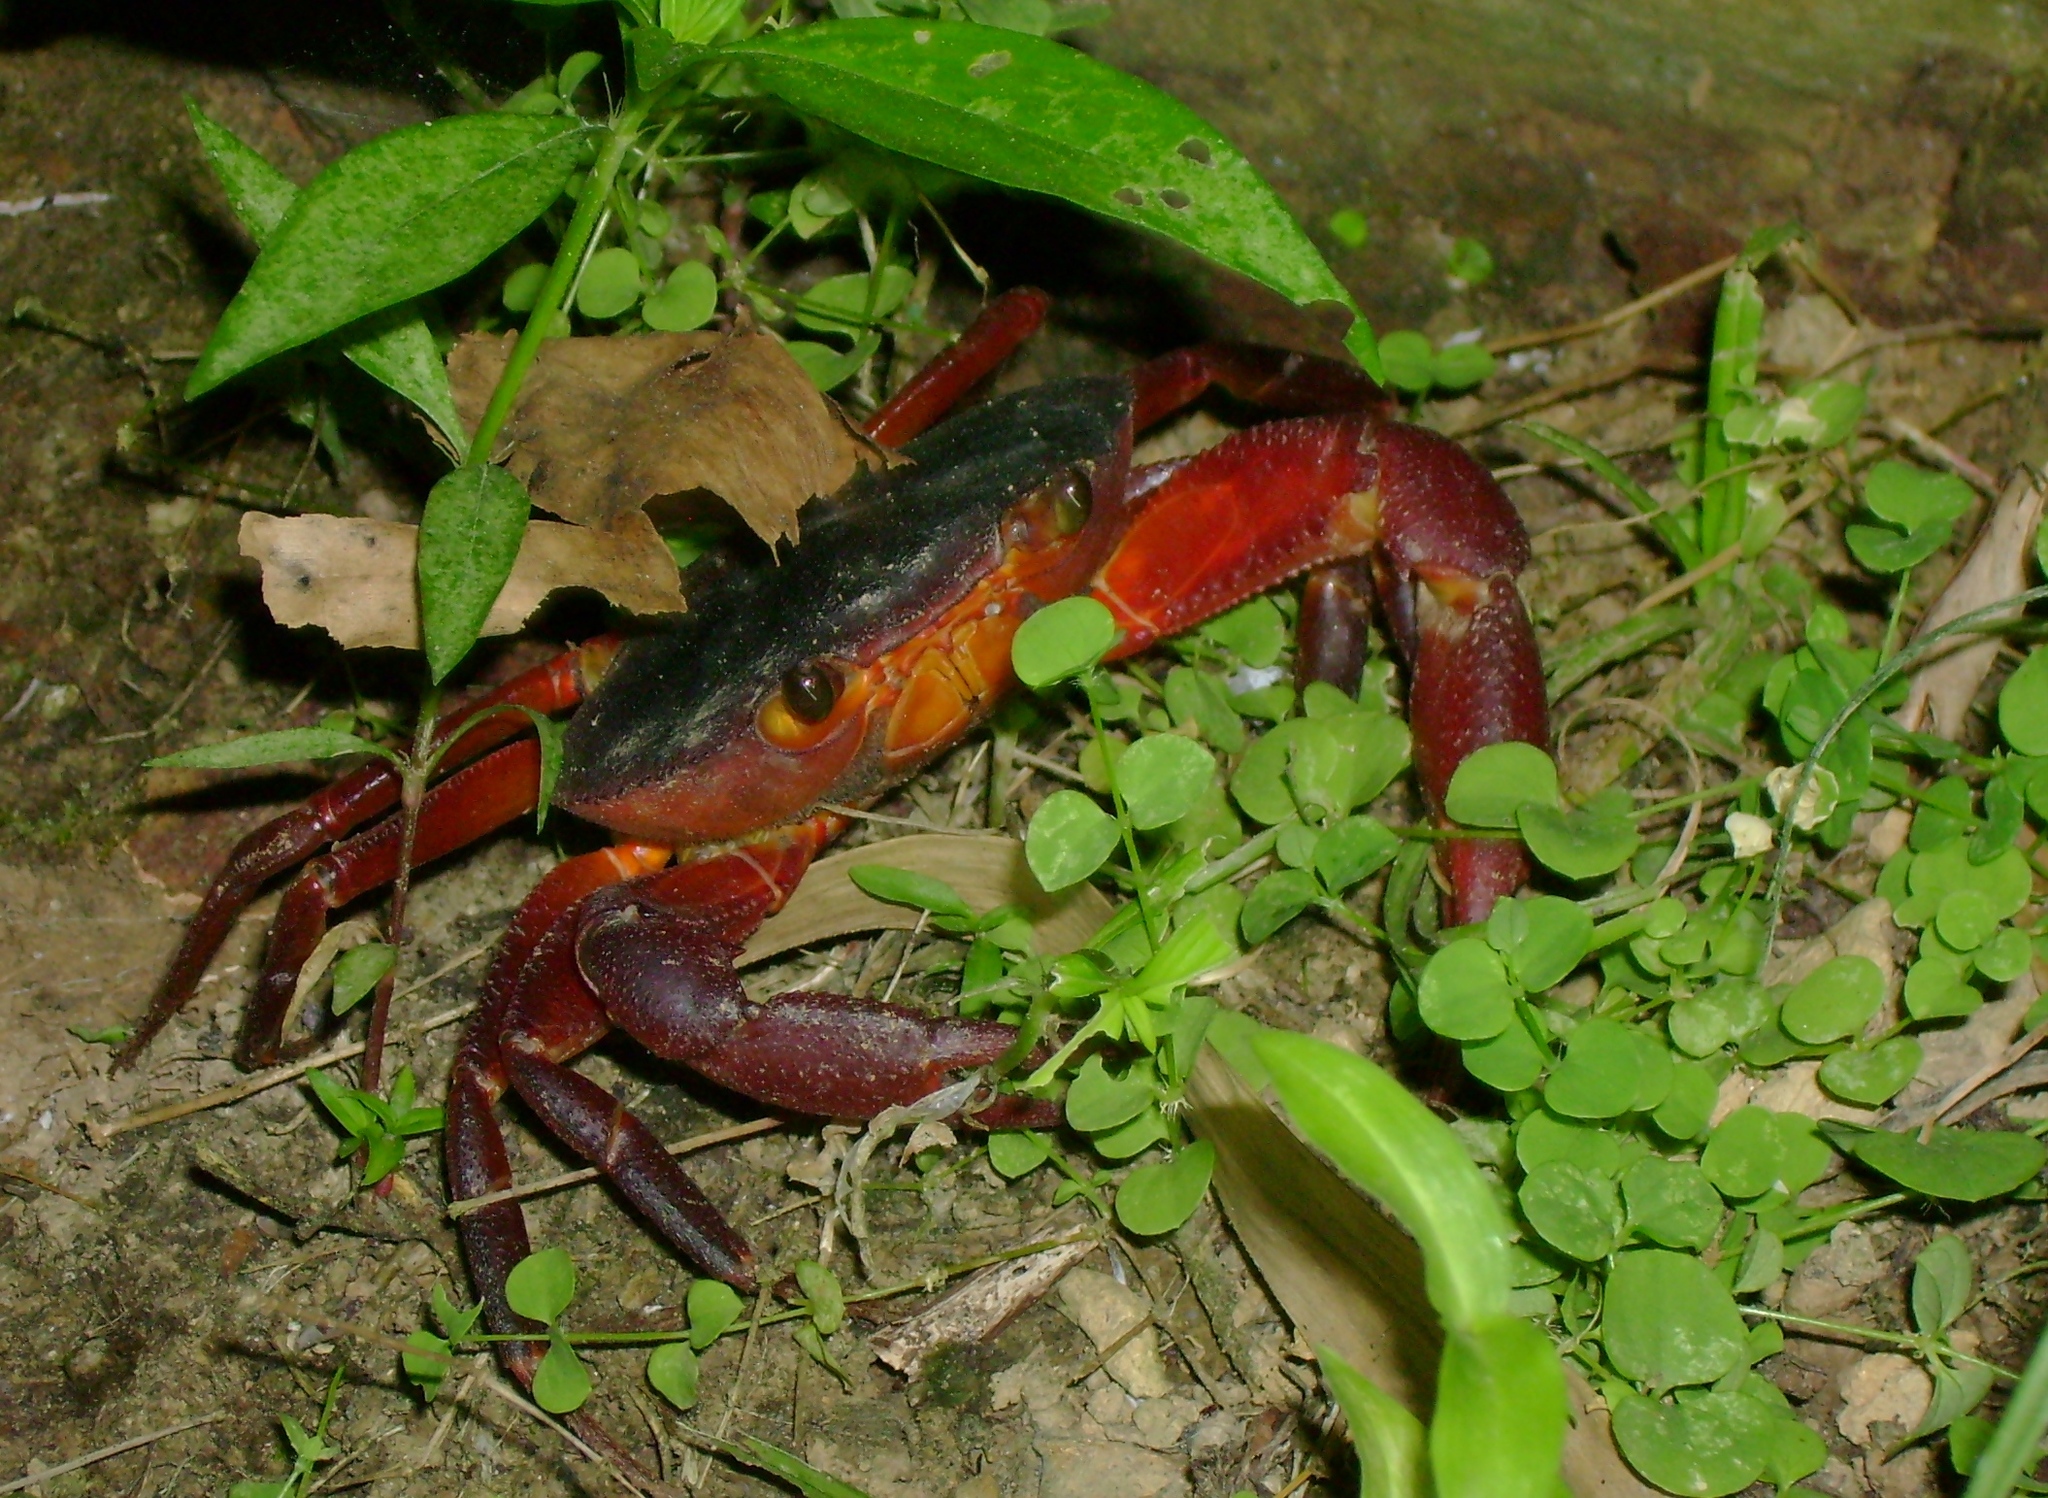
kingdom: Animalia
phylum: Arthropoda
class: Malacostraca
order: Decapoda
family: Pseudothelphusidae
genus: Rodriguezus
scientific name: Rodriguezus garmani
